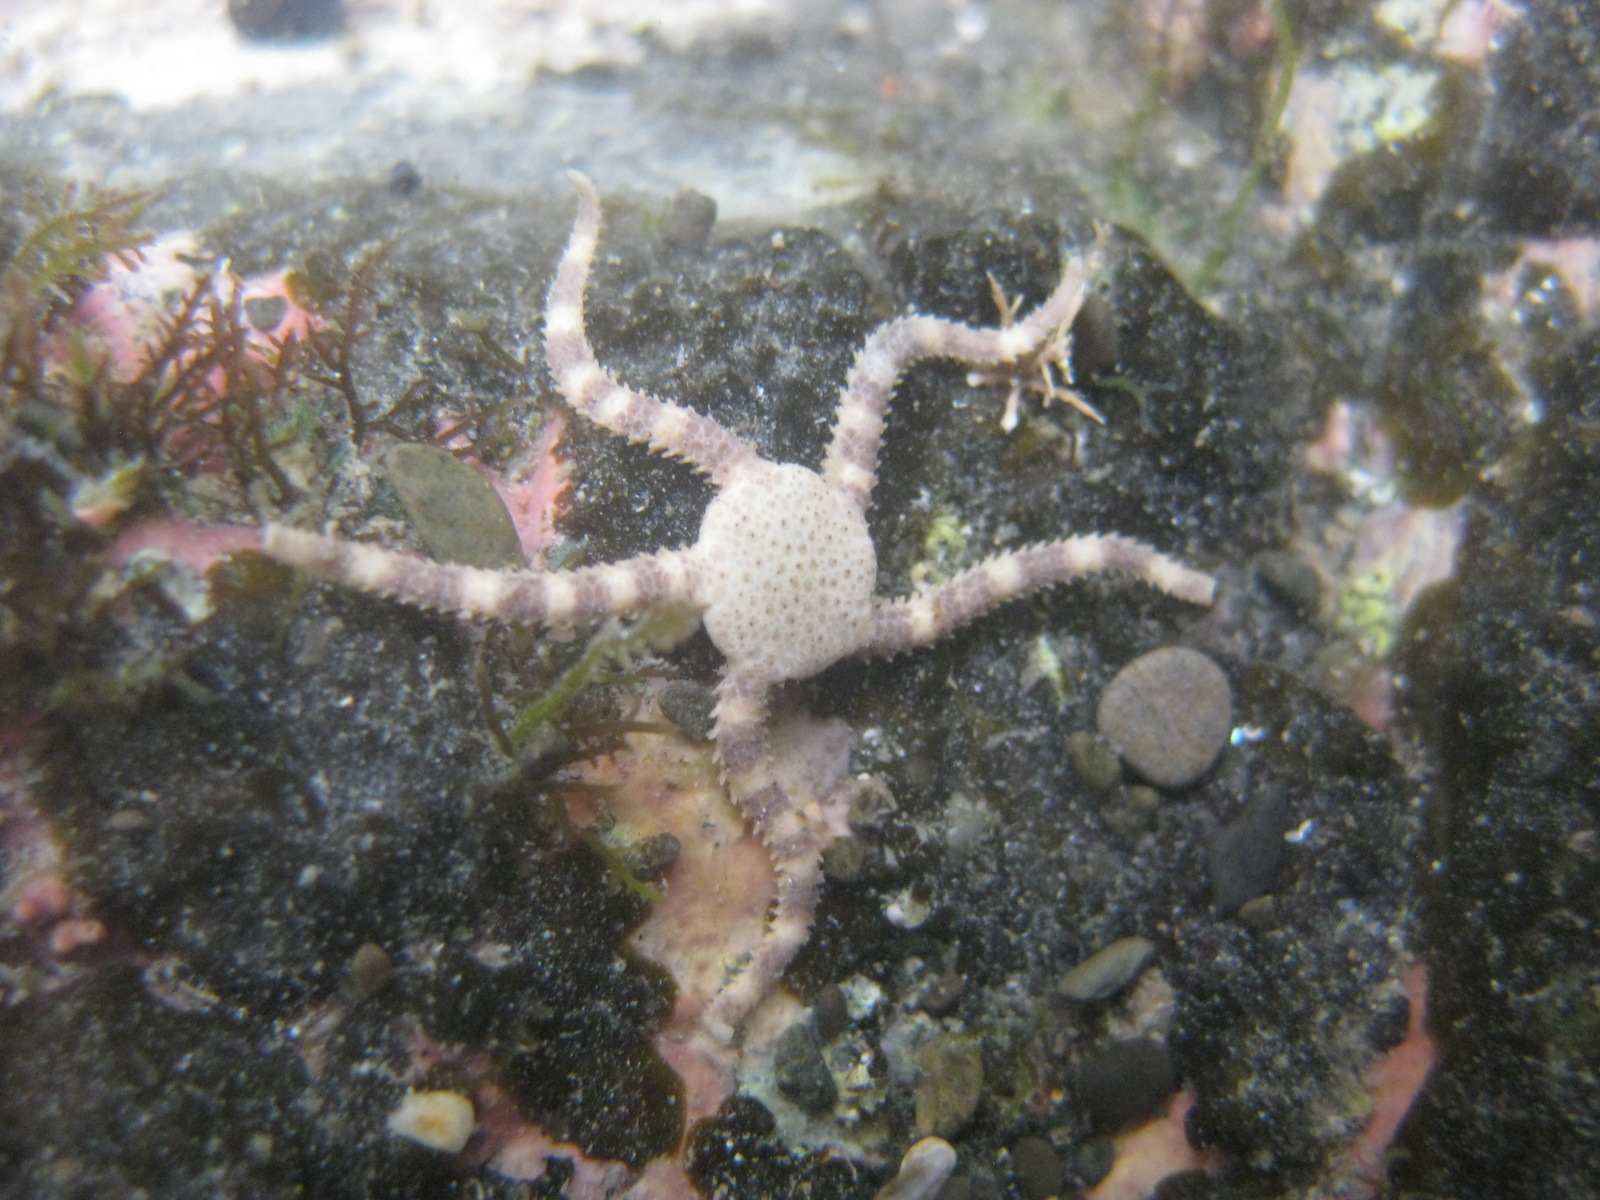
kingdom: Animalia
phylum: Echinodermata
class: Ophiuroidea
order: Amphilepidida
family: Hemieuryalidae
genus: Ophioplocus
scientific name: Ophioplocus huttoni
